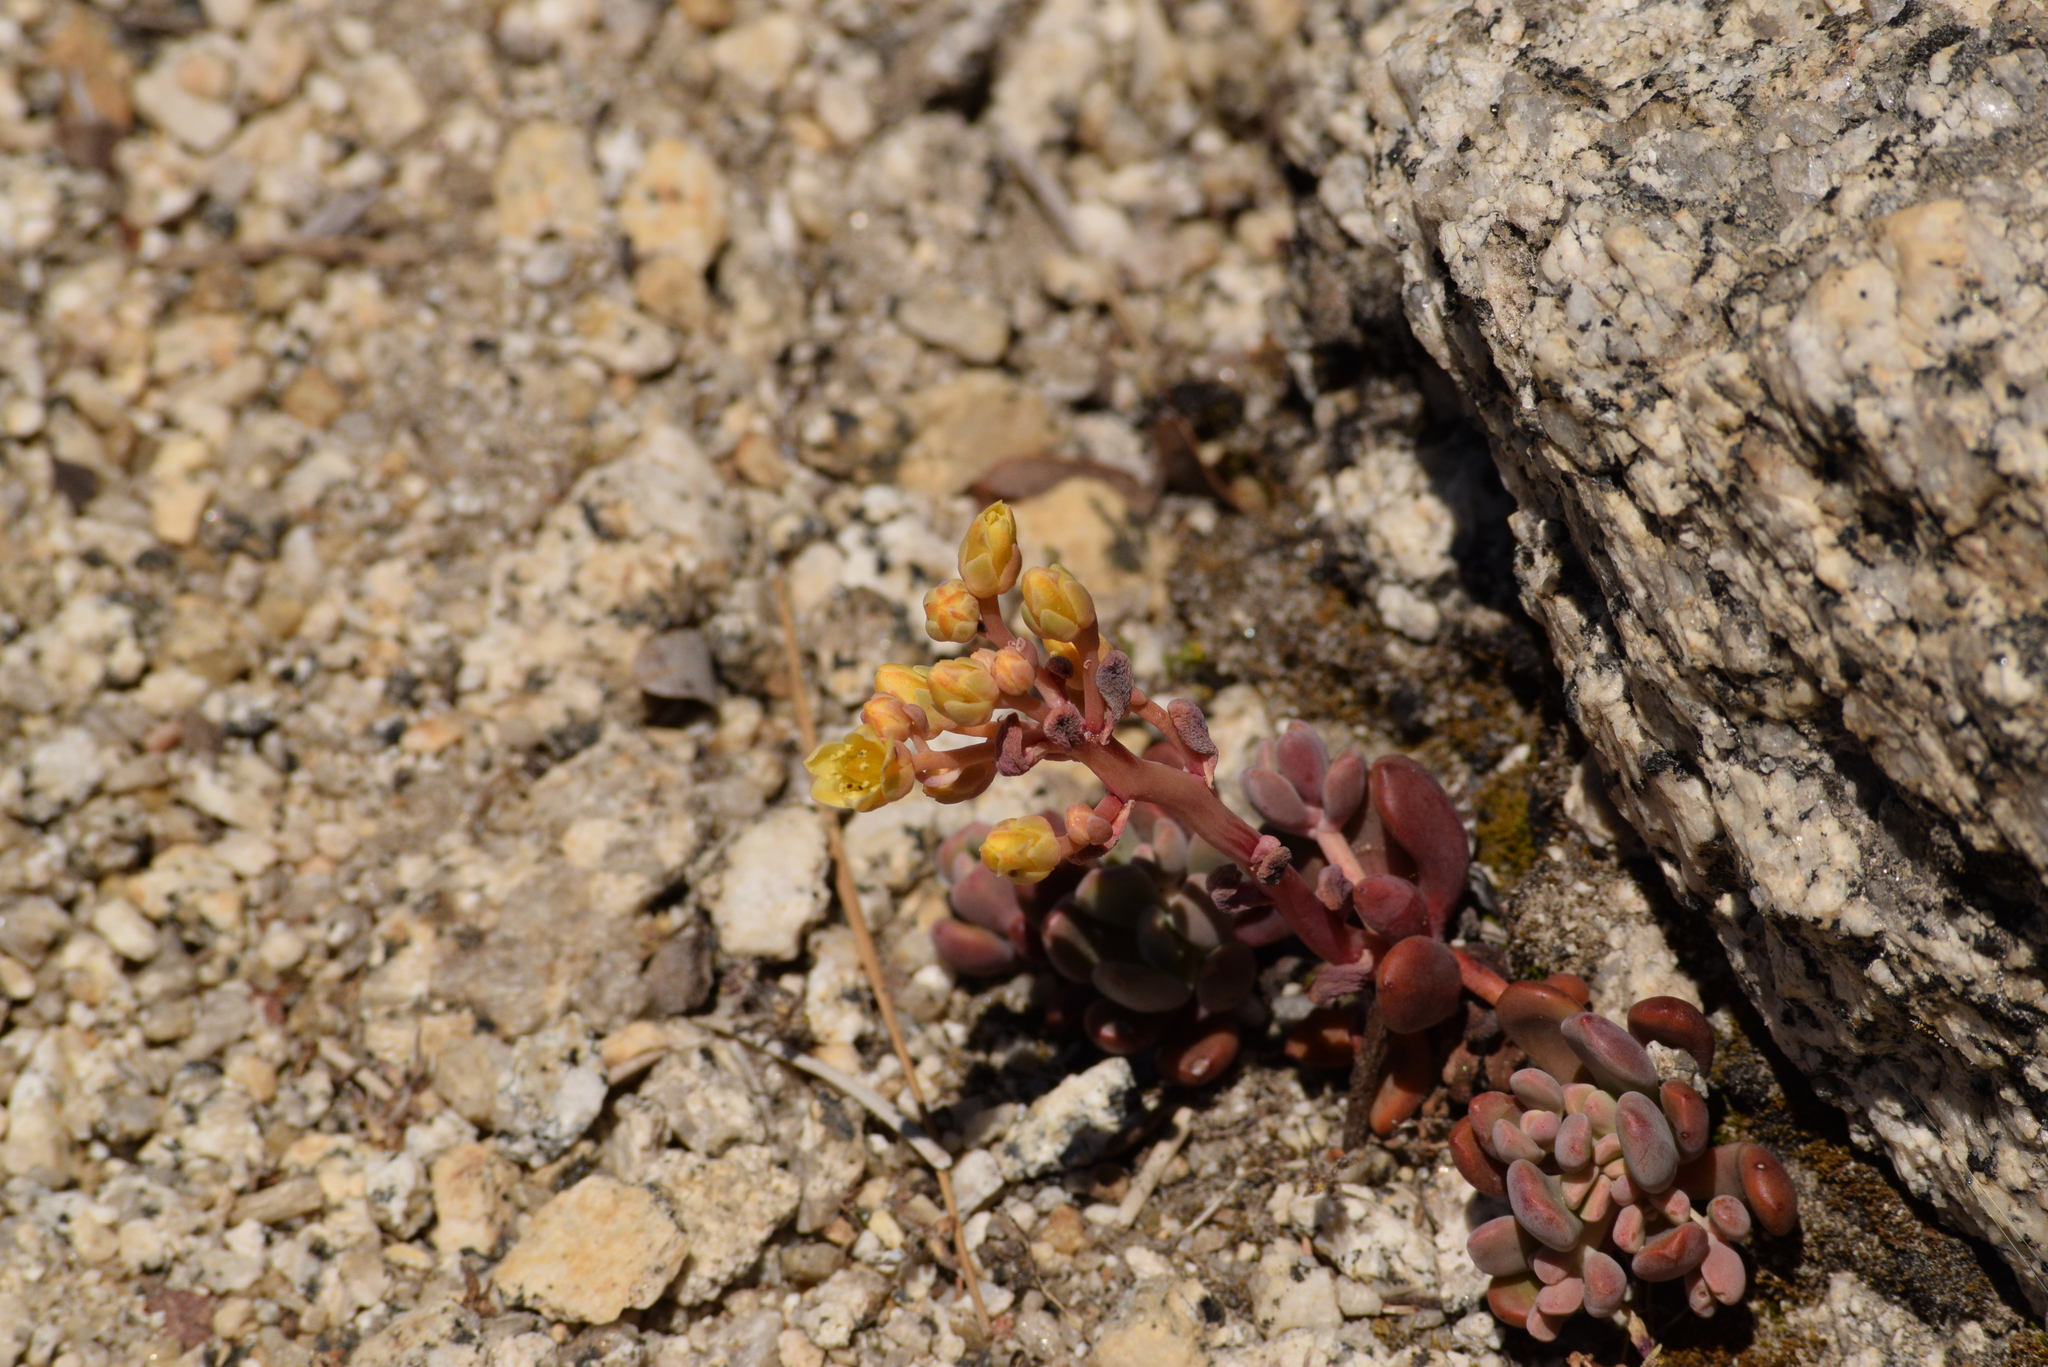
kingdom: Plantae
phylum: Tracheophyta
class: Magnoliopsida
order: Saxifragales
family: Crassulaceae
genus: Sedum
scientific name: Sedum obtusatum
